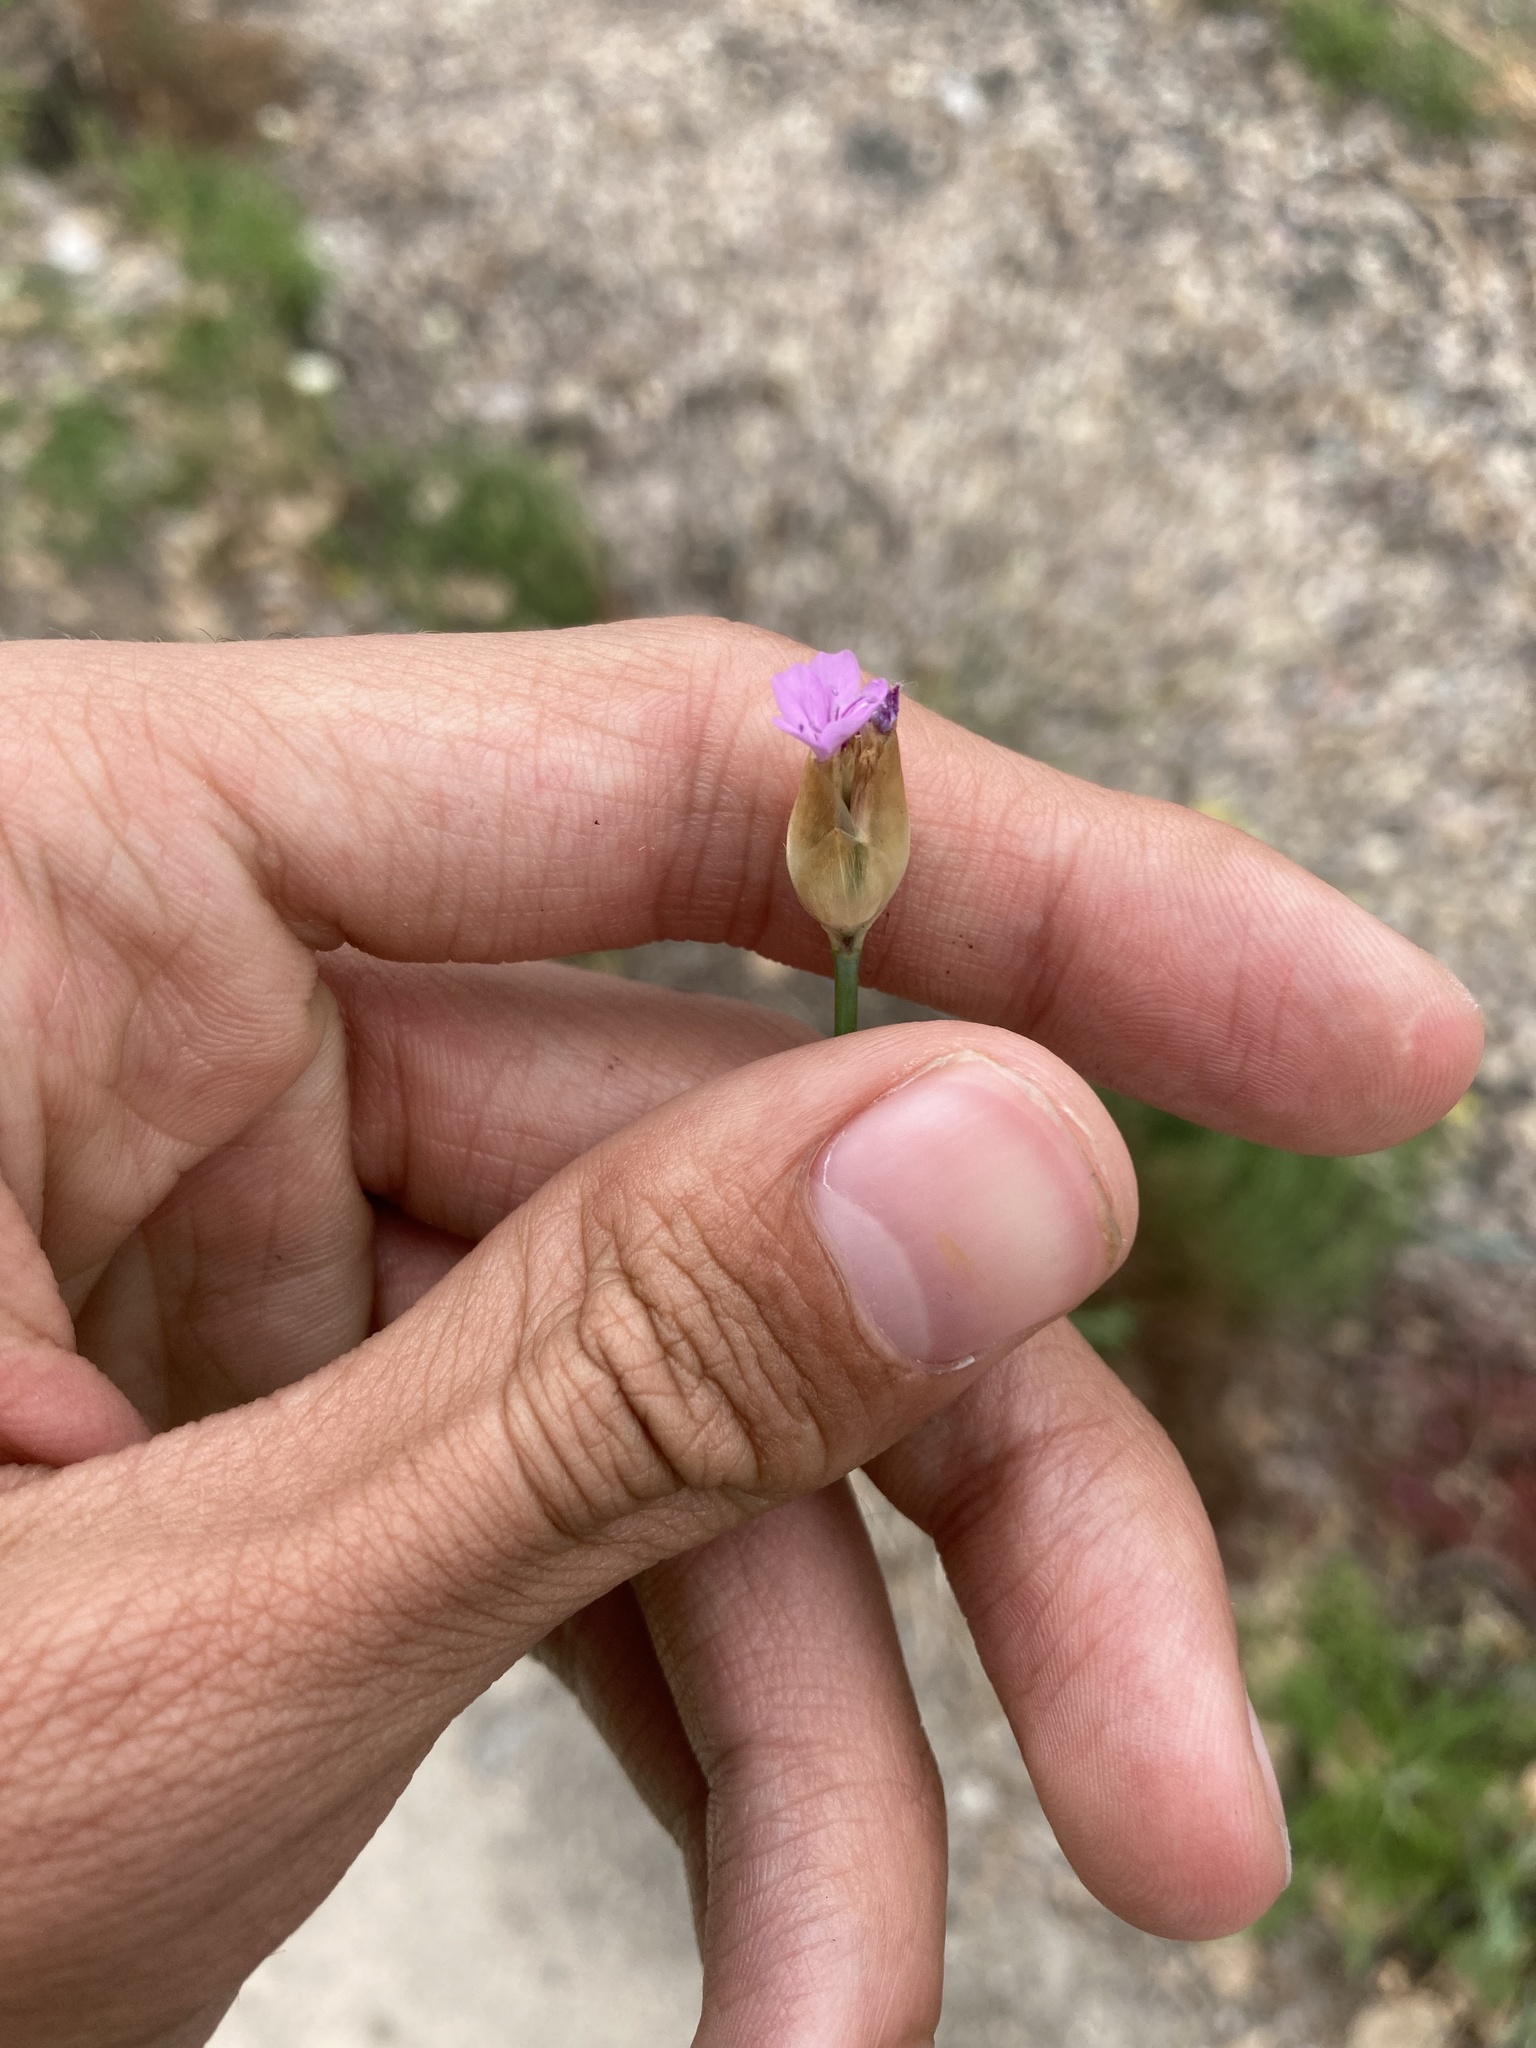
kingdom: Plantae
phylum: Tracheophyta
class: Magnoliopsida
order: Caryophyllales
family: Caryophyllaceae
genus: Petrorhagia
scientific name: Petrorhagia prolifera
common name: Proliferous pink
